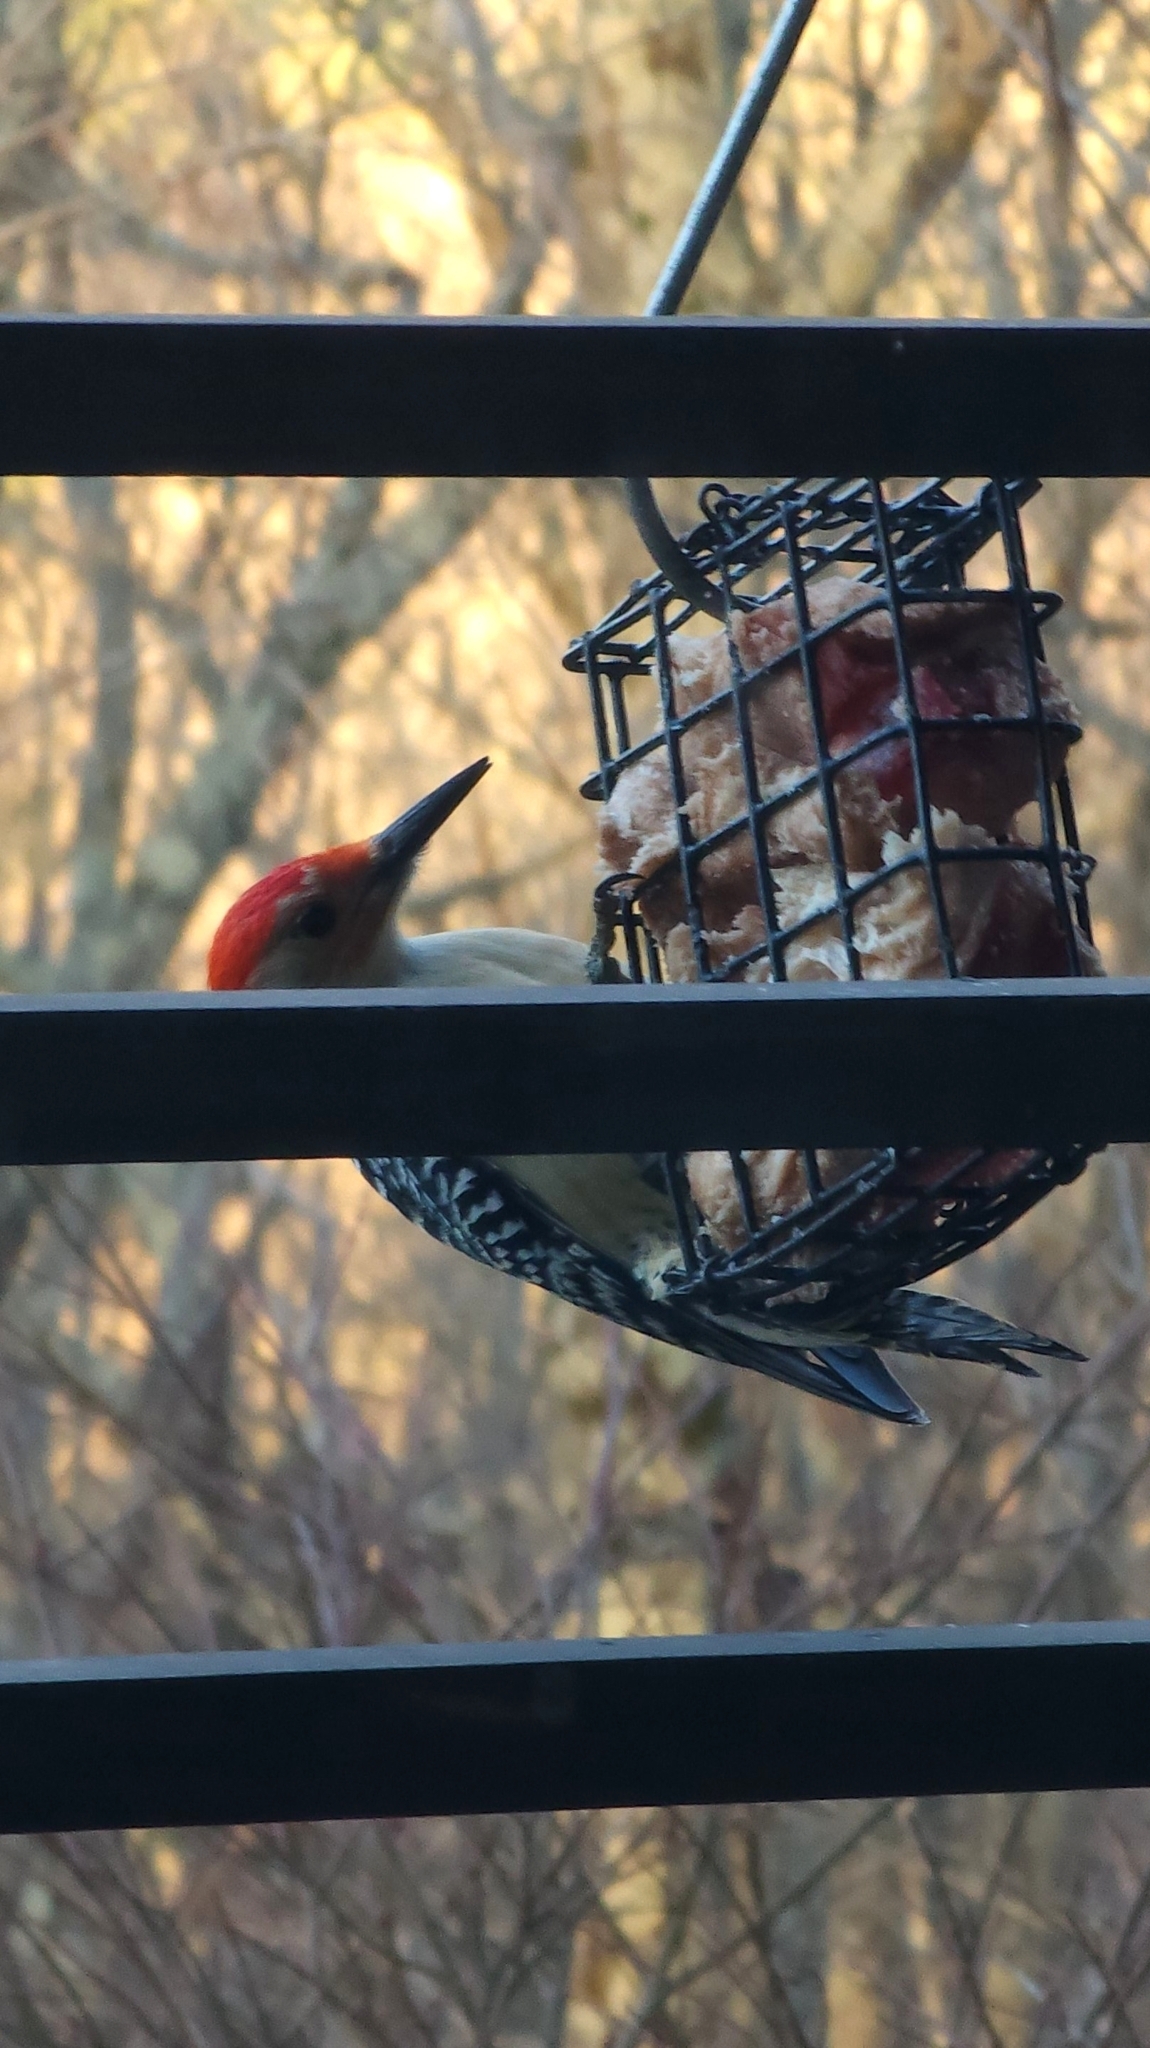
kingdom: Animalia
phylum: Chordata
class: Aves
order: Piciformes
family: Picidae
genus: Melanerpes
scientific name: Melanerpes carolinus
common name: Red-bellied woodpecker
